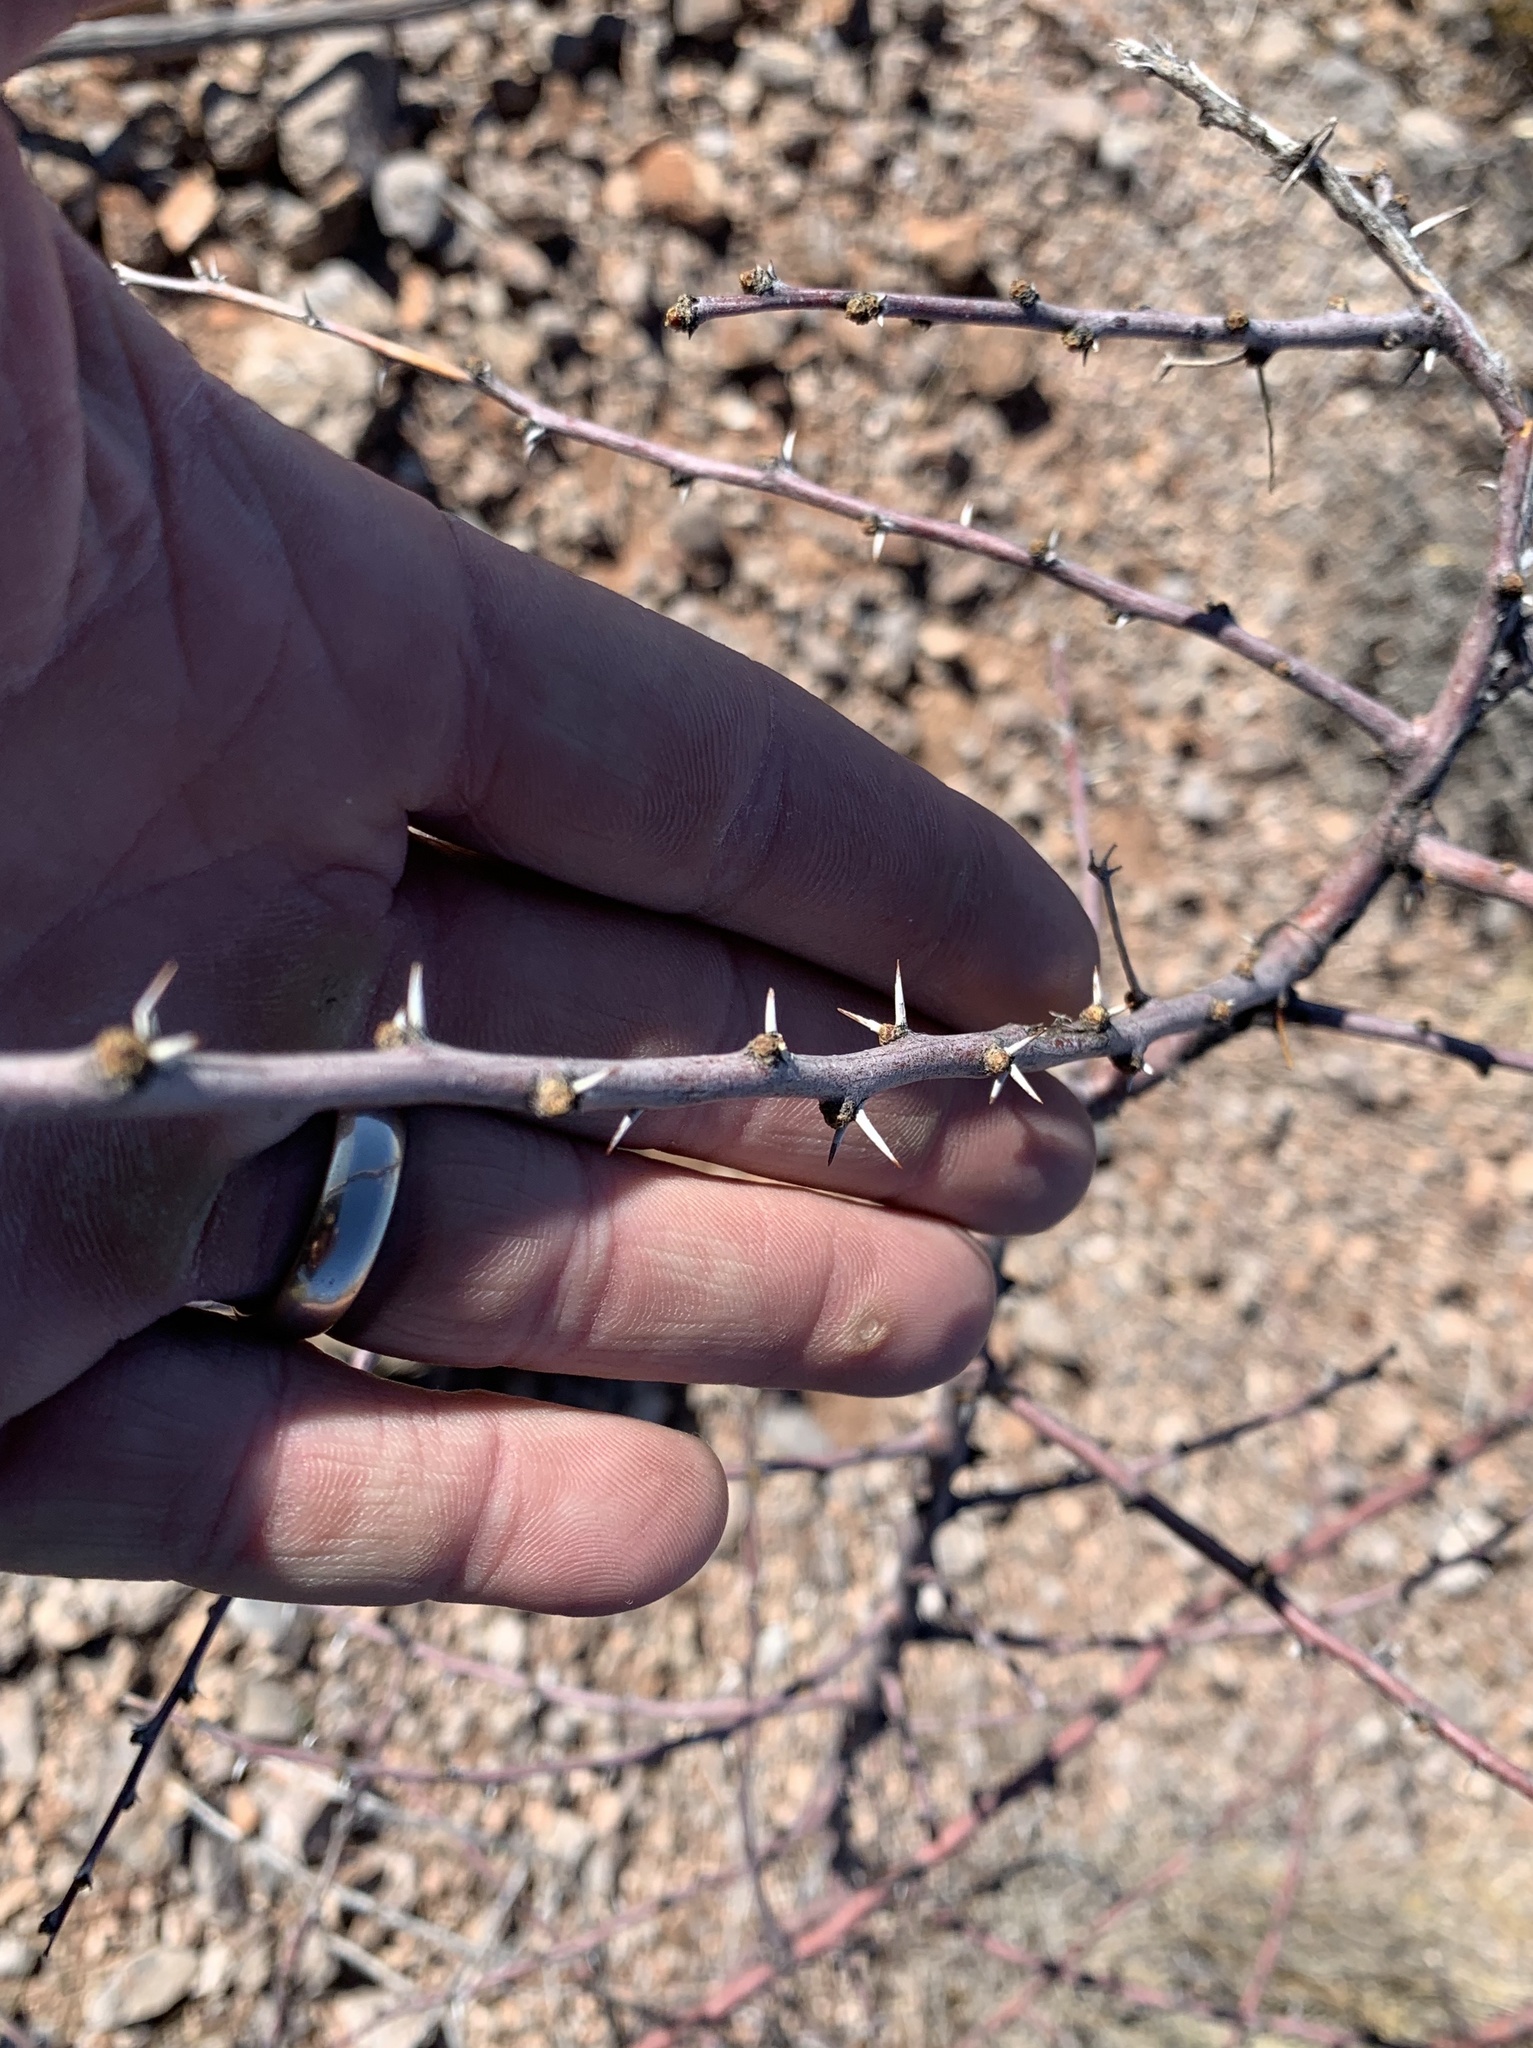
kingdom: Plantae
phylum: Tracheophyta
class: Magnoliopsida
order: Fabales
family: Fabaceae
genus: Vachellia
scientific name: Vachellia constricta
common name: Mescat acacia
